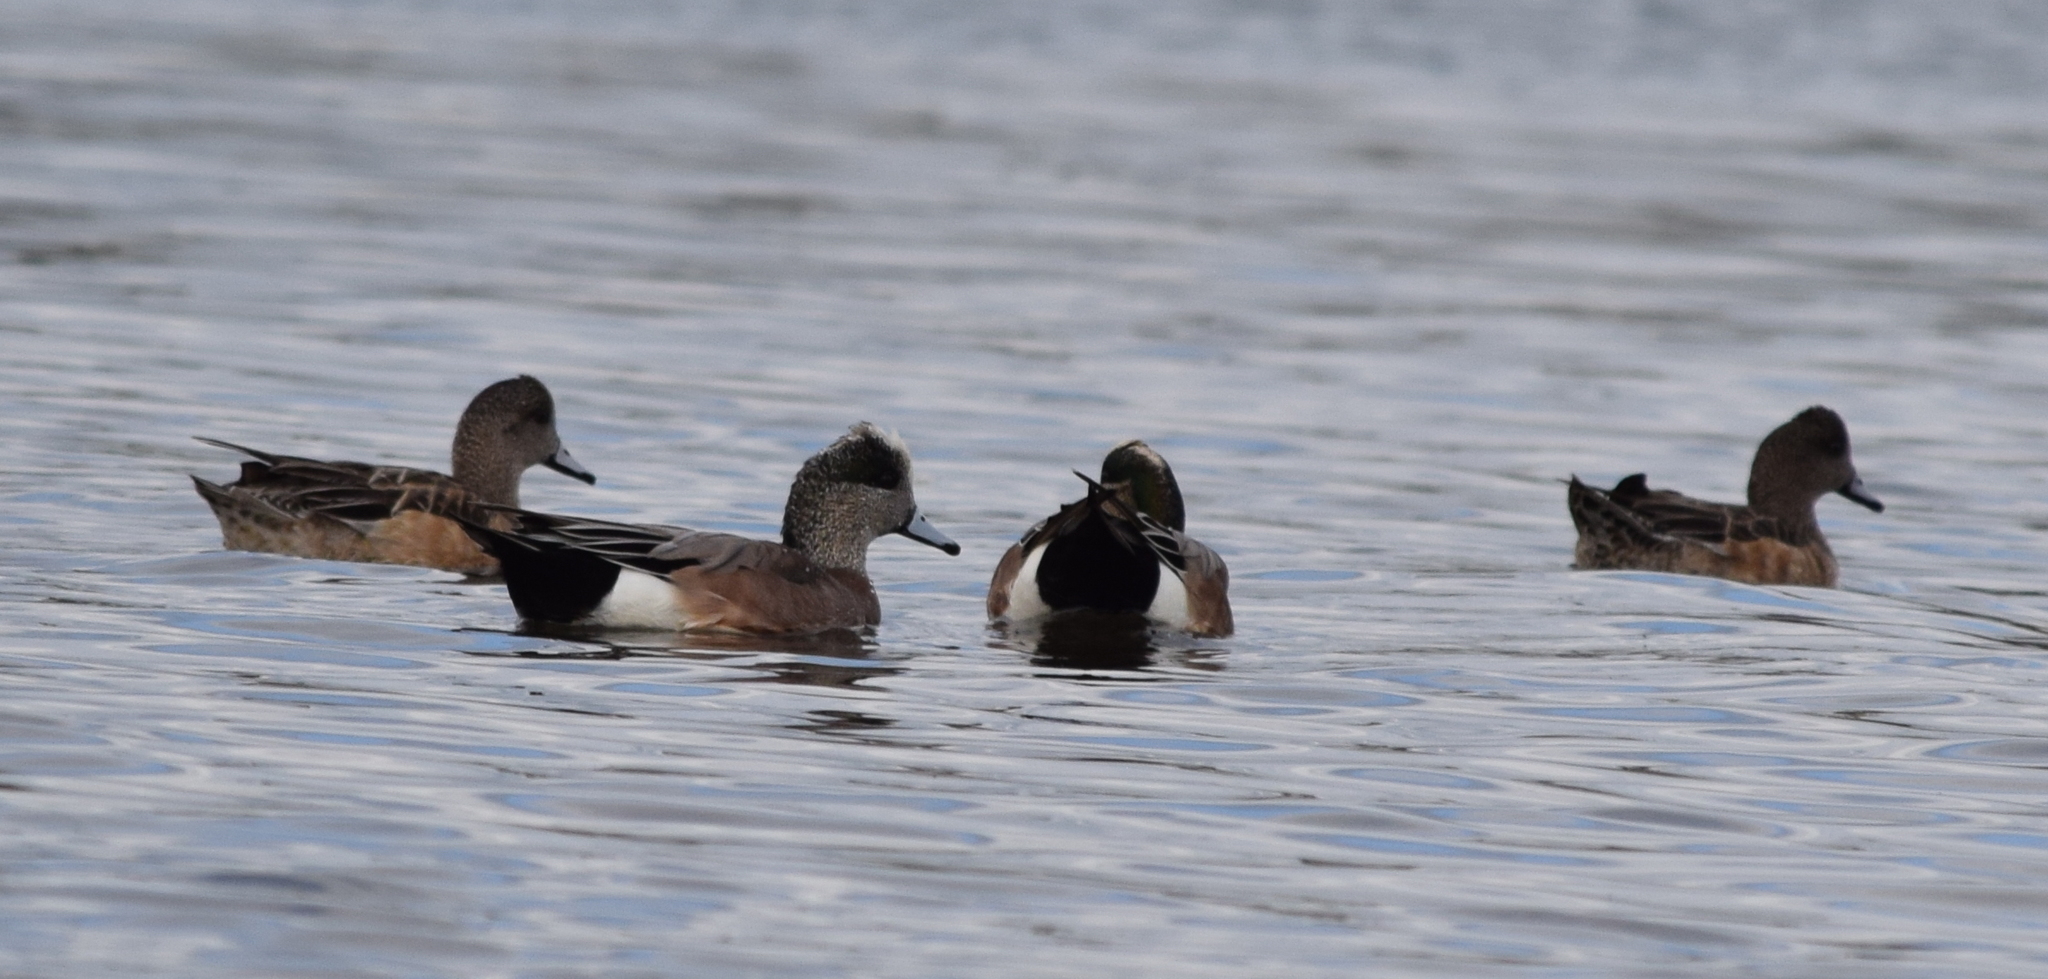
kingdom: Animalia
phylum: Chordata
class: Aves
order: Anseriformes
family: Anatidae
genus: Mareca
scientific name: Mareca americana
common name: American wigeon
